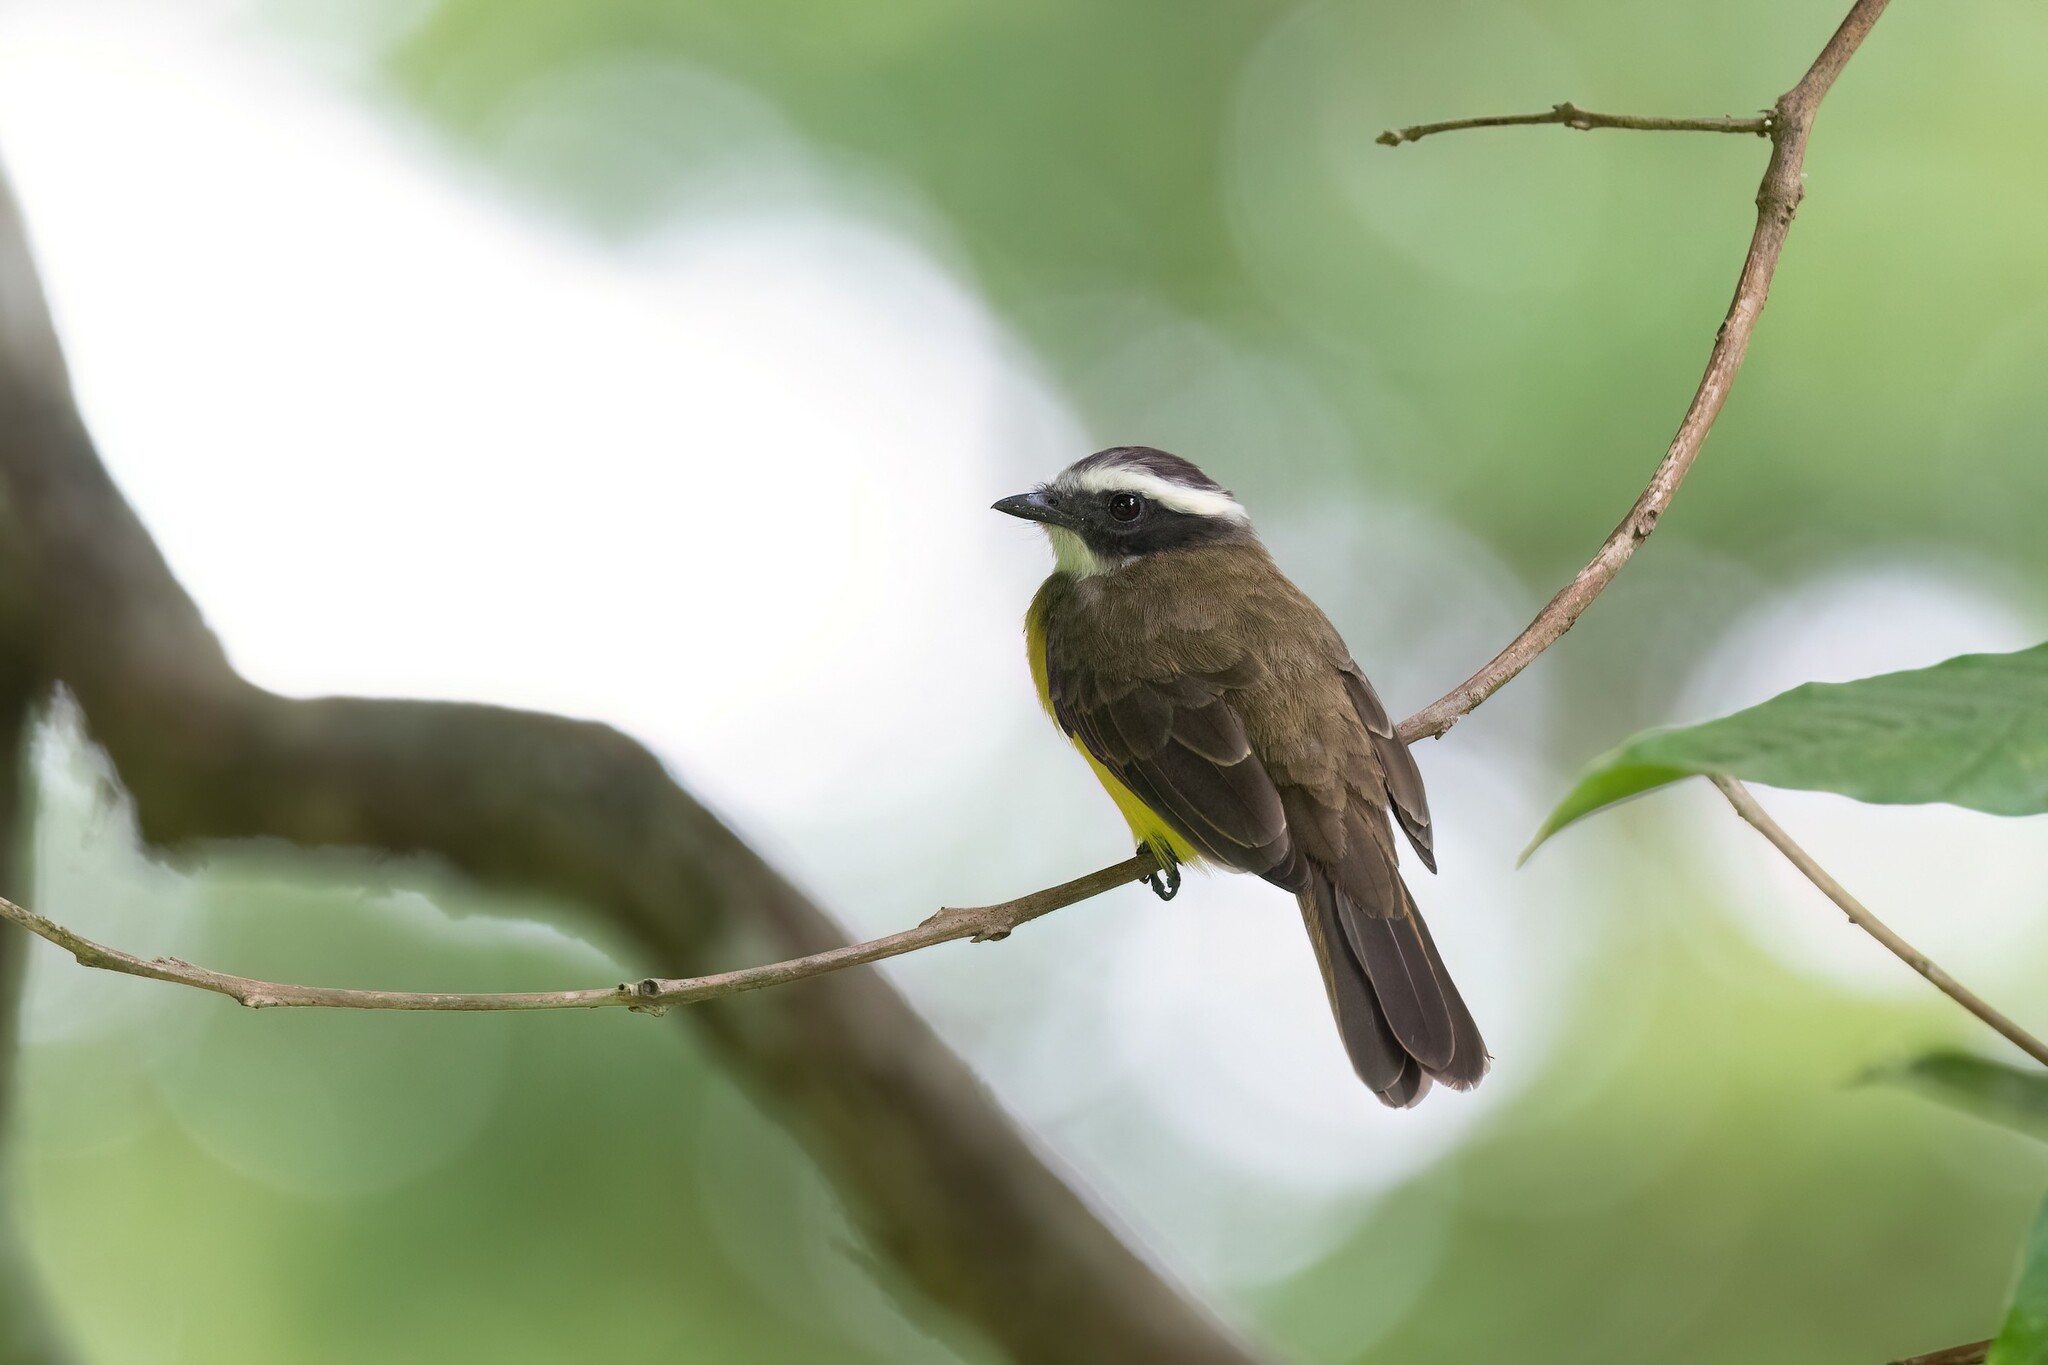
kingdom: Animalia
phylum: Chordata
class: Aves
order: Passeriformes
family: Tyrannidae
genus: Myiozetetes
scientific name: Myiozetetes similis
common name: Social flycatcher
